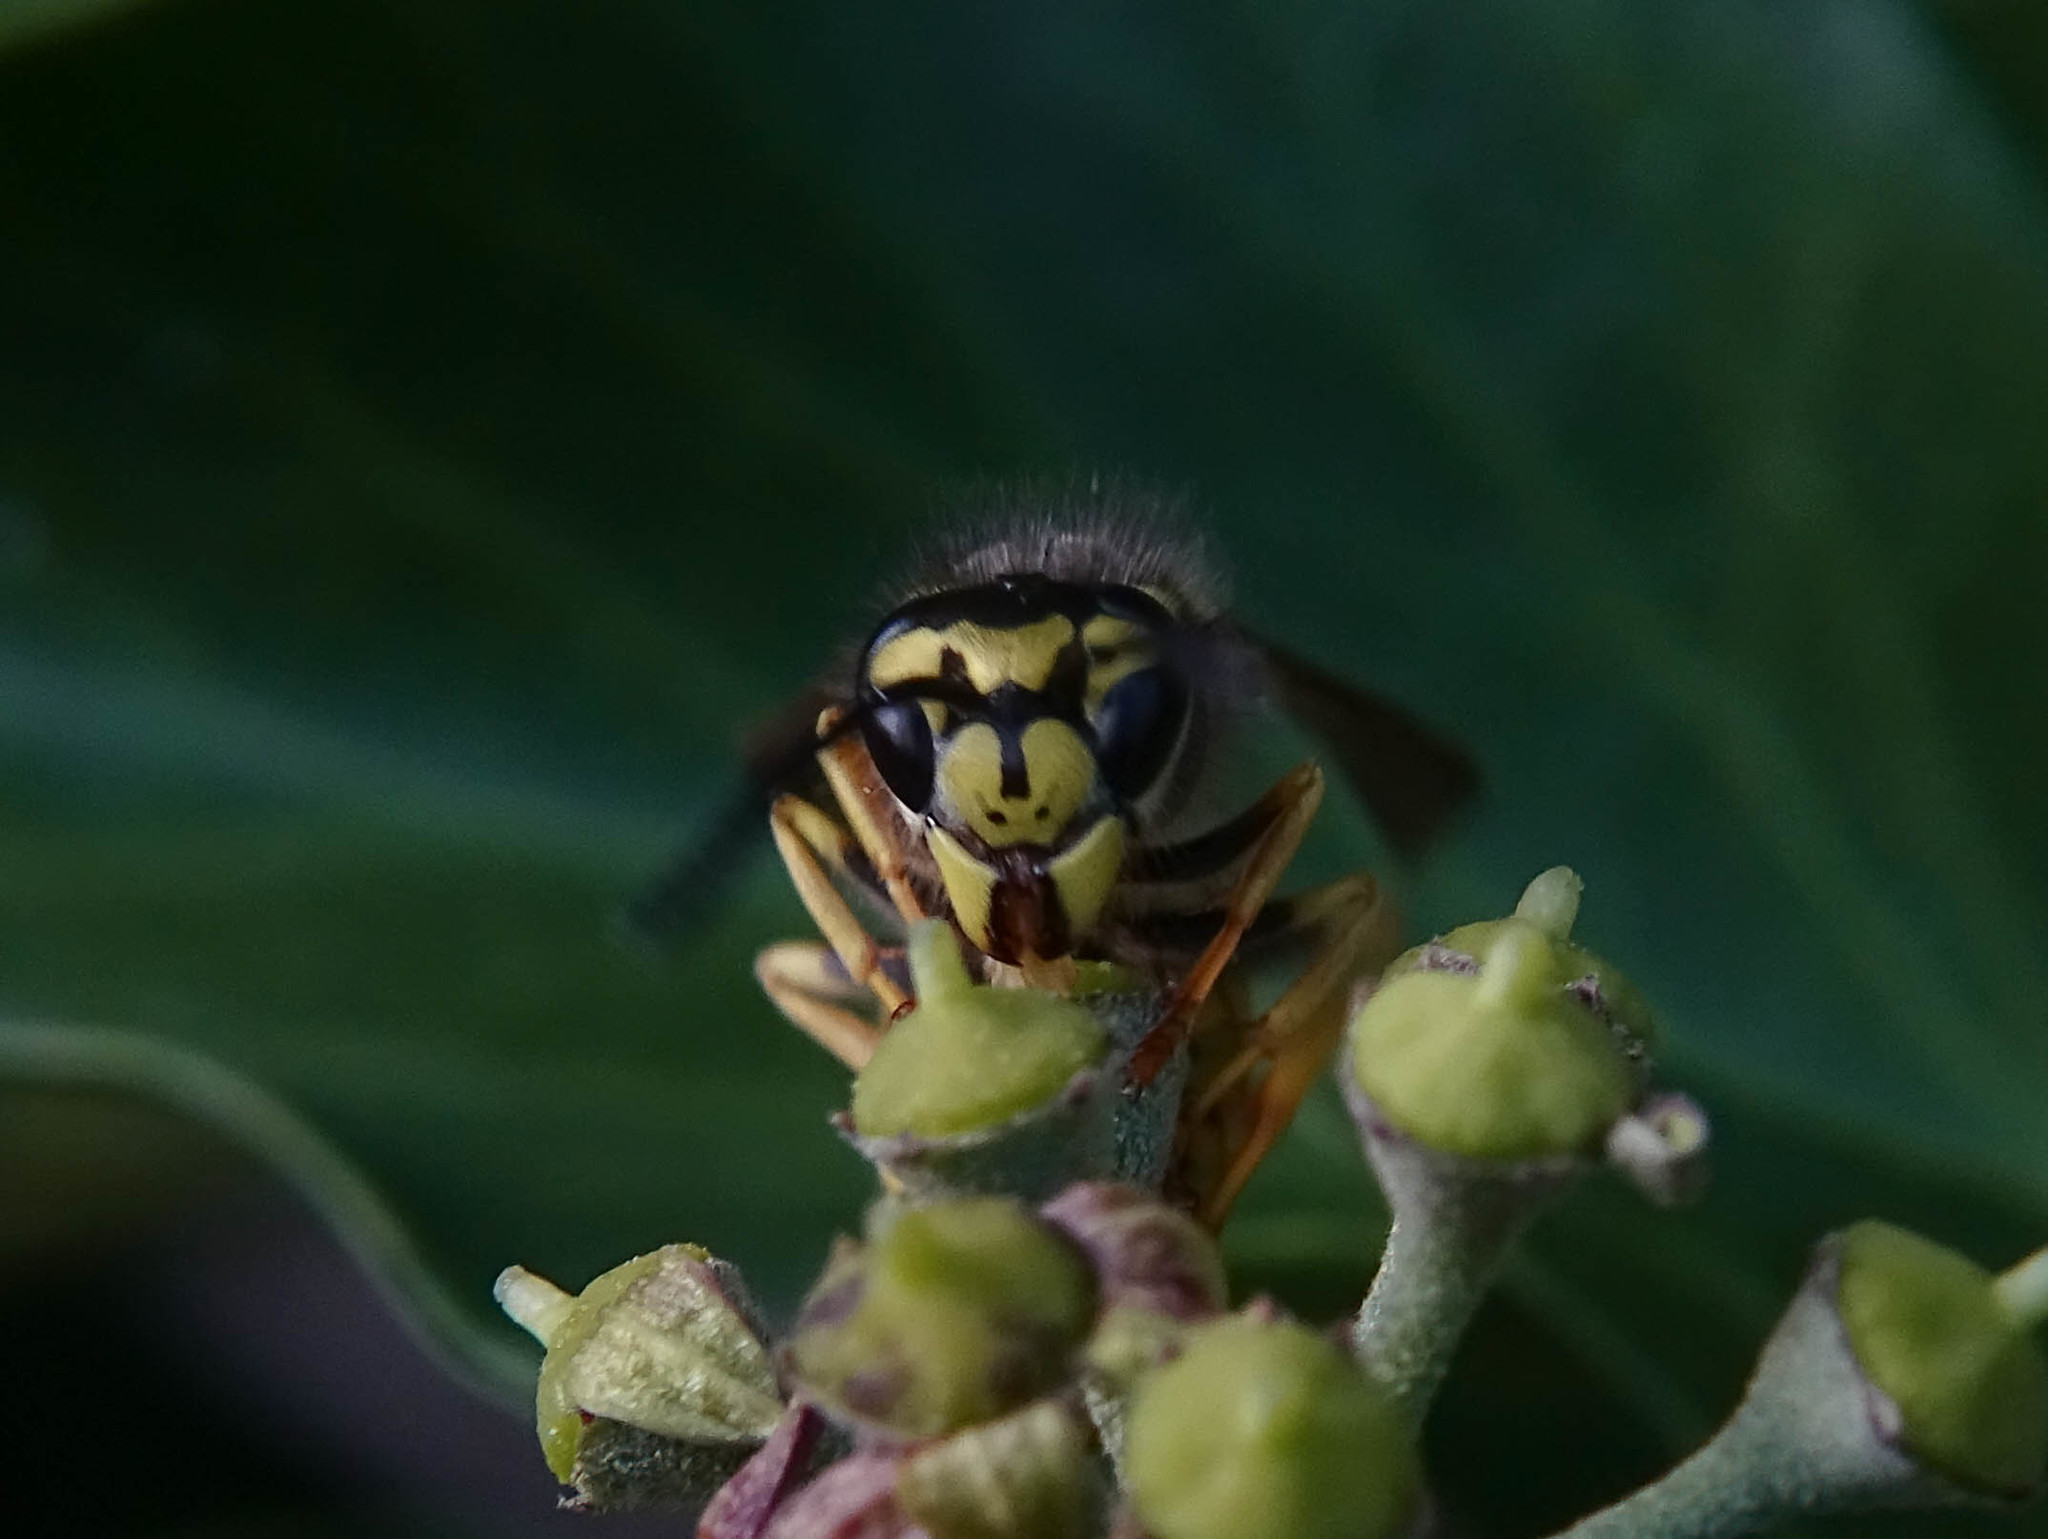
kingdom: Animalia
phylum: Arthropoda
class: Insecta
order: Hymenoptera
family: Vespidae
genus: Vespula
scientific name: Vespula germanica
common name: German wasp
